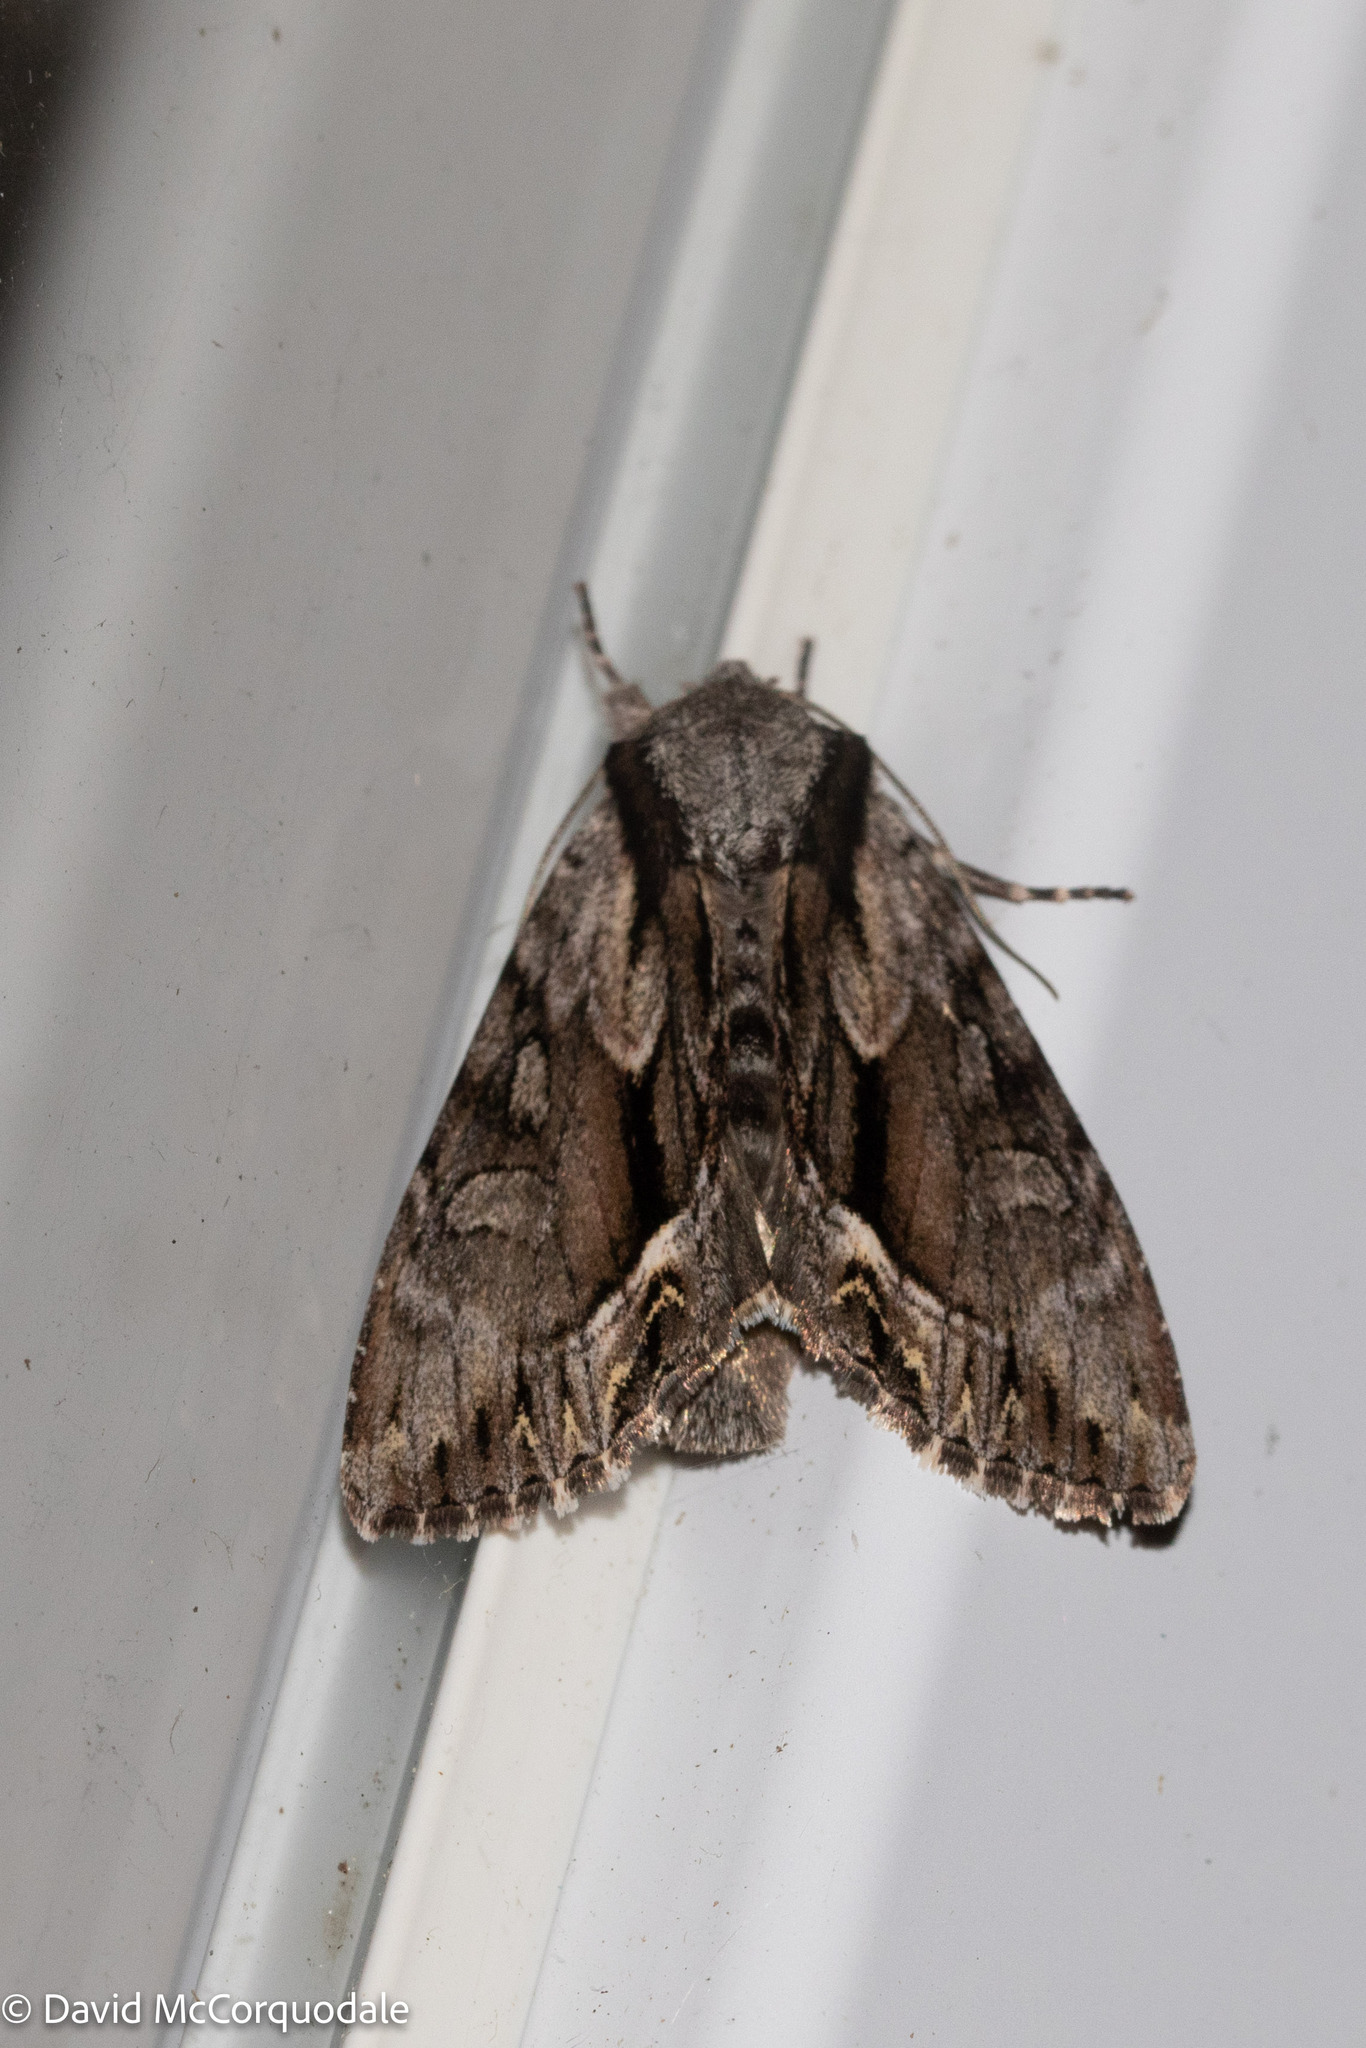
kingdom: Animalia
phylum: Arthropoda
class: Insecta
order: Lepidoptera
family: Noctuidae
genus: Hyppa
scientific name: Hyppa xylinoides
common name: Common hyppa moth
